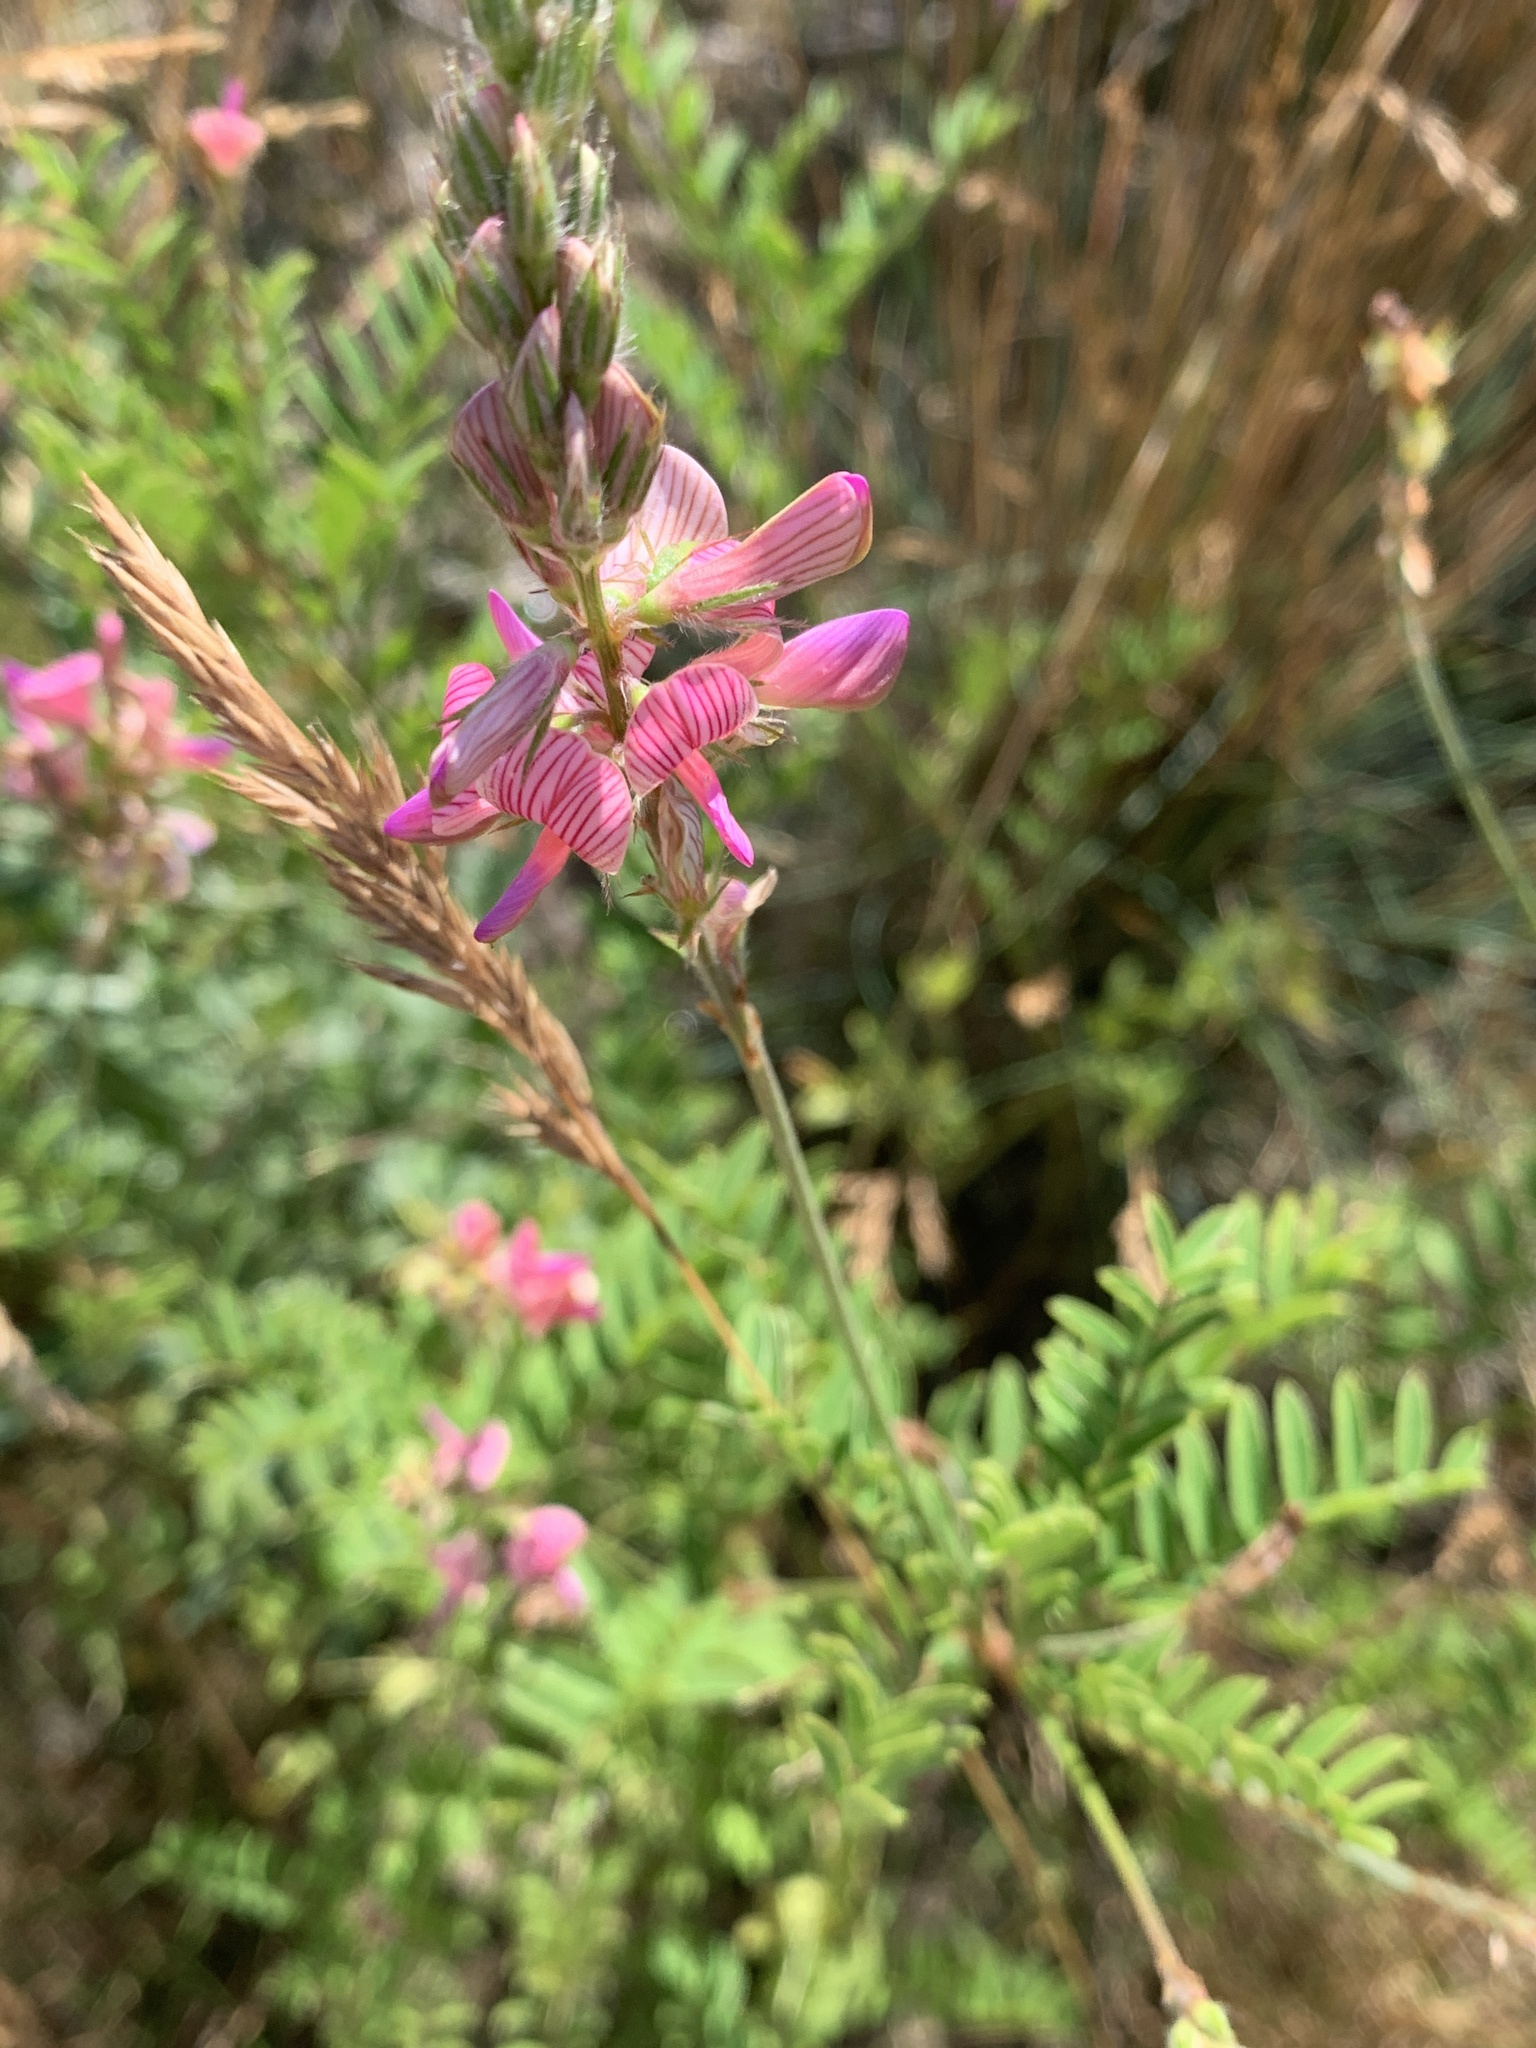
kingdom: Plantae
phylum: Tracheophyta
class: Magnoliopsida
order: Fabales
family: Fabaceae
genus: Onobrychis
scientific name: Onobrychis viciifolia
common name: Sainfoin
